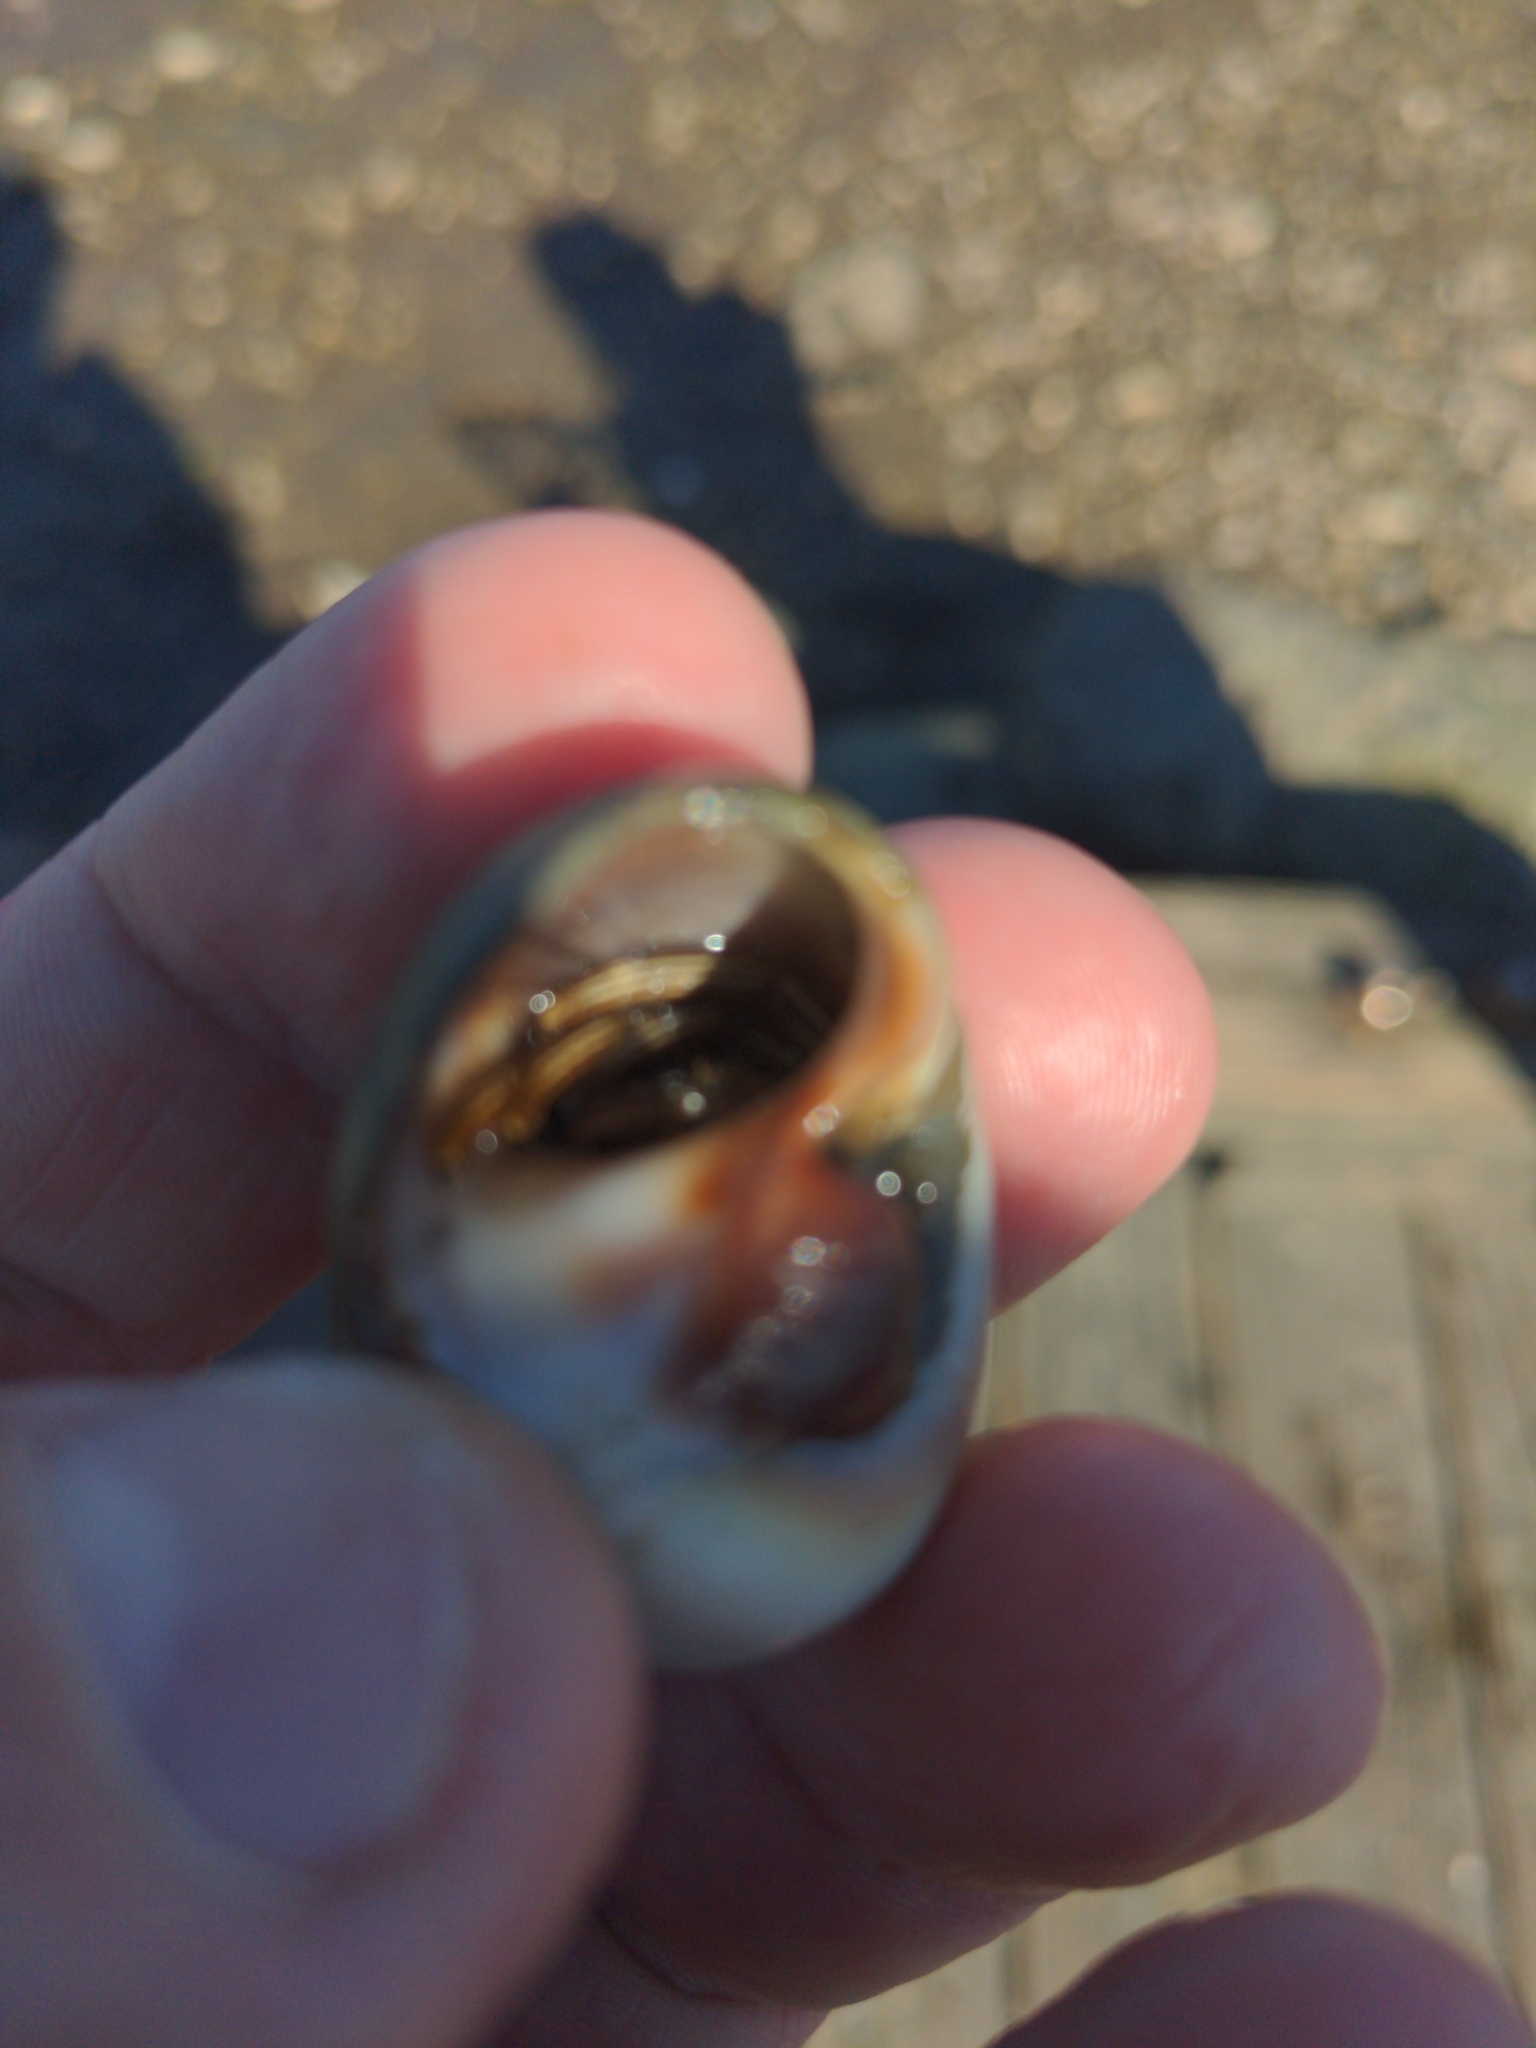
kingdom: Animalia
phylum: Arthropoda
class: Malacostraca
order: Decapoda
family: Diogenidae
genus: Clibanarius
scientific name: Clibanarius vittatus
